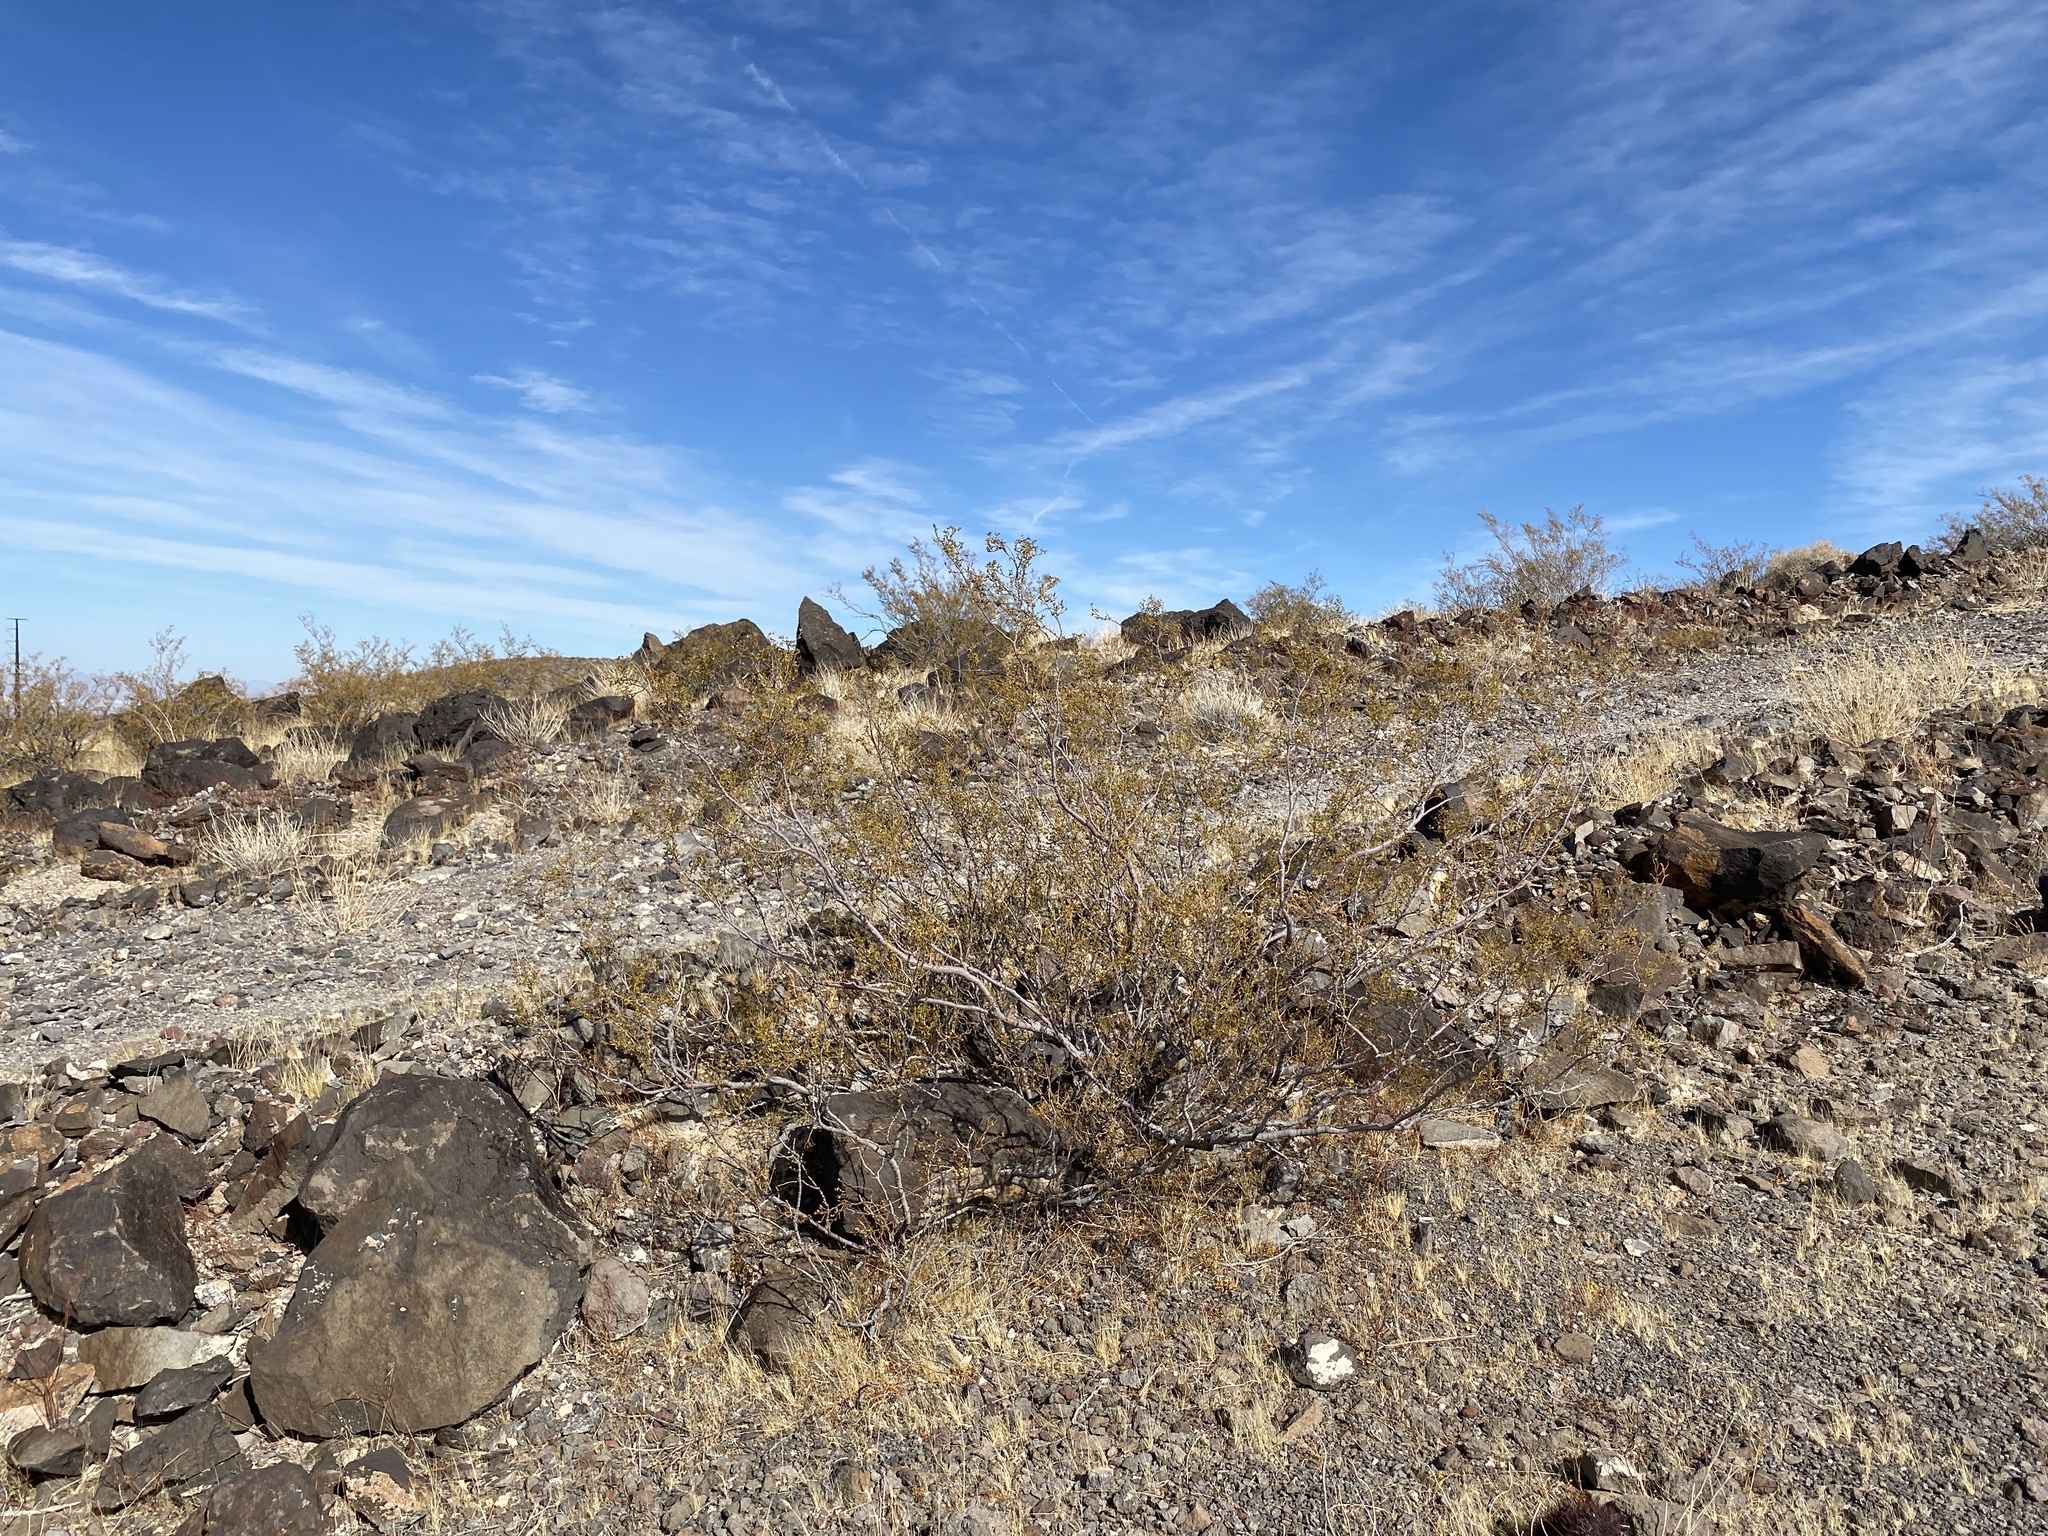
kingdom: Plantae
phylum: Tracheophyta
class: Magnoliopsida
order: Zygophyllales
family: Zygophyllaceae
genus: Larrea
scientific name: Larrea tridentata
